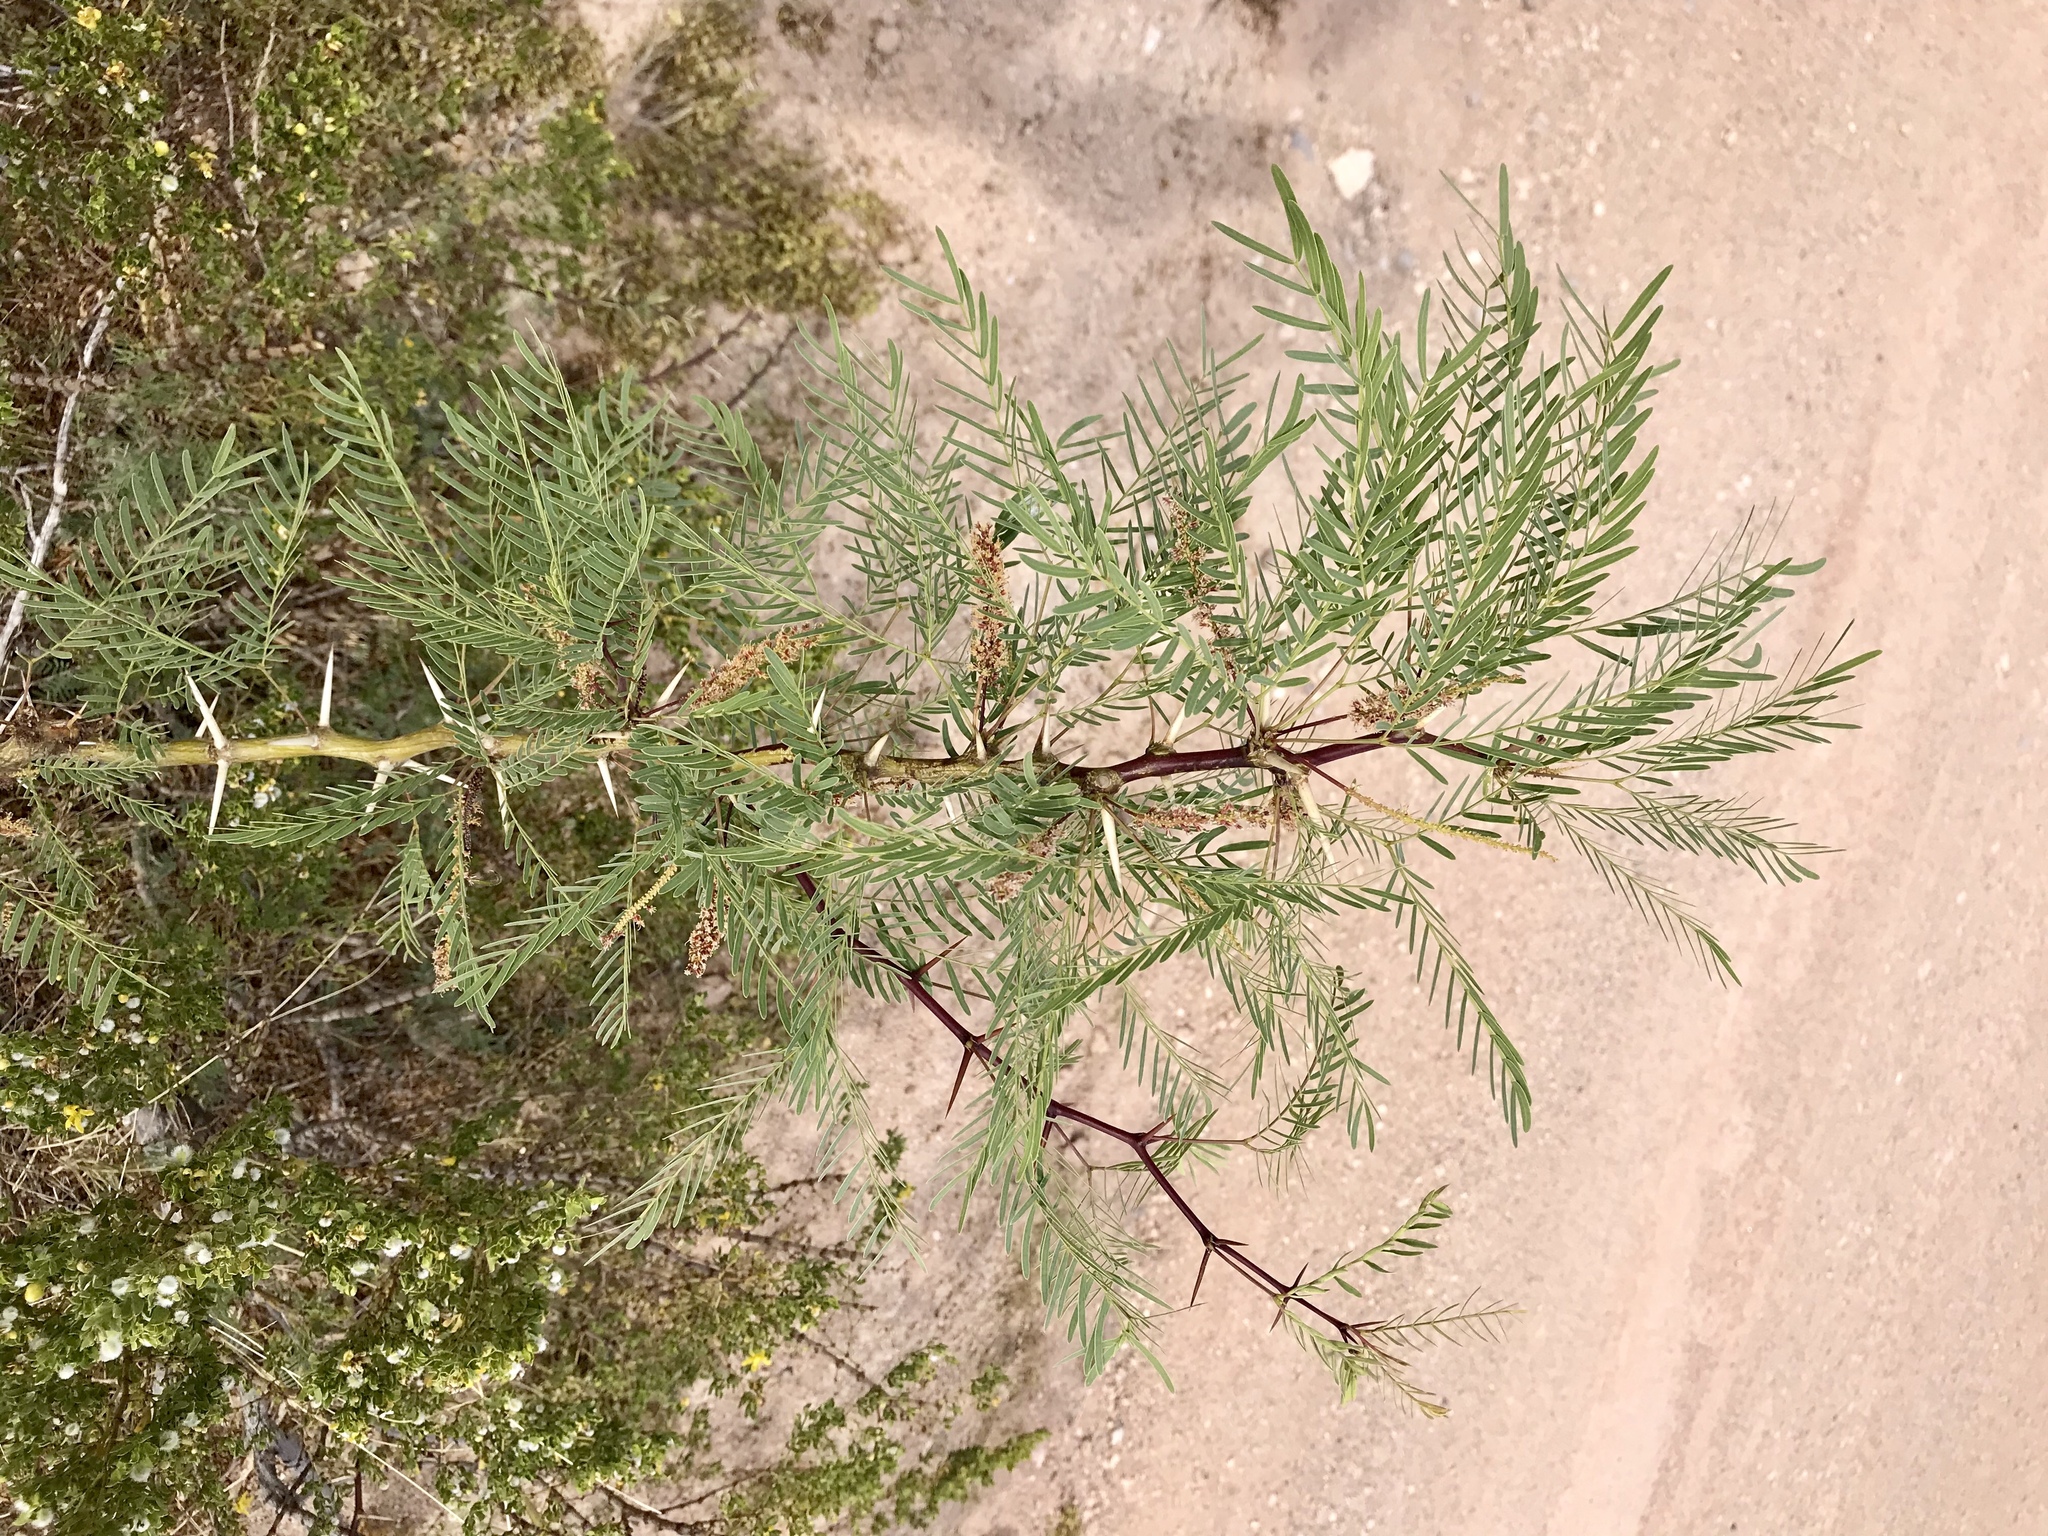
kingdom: Plantae
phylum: Tracheophyta
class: Magnoliopsida
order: Fabales
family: Fabaceae
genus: Prosopis
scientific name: Prosopis glandulosa
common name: Honey mesquite
